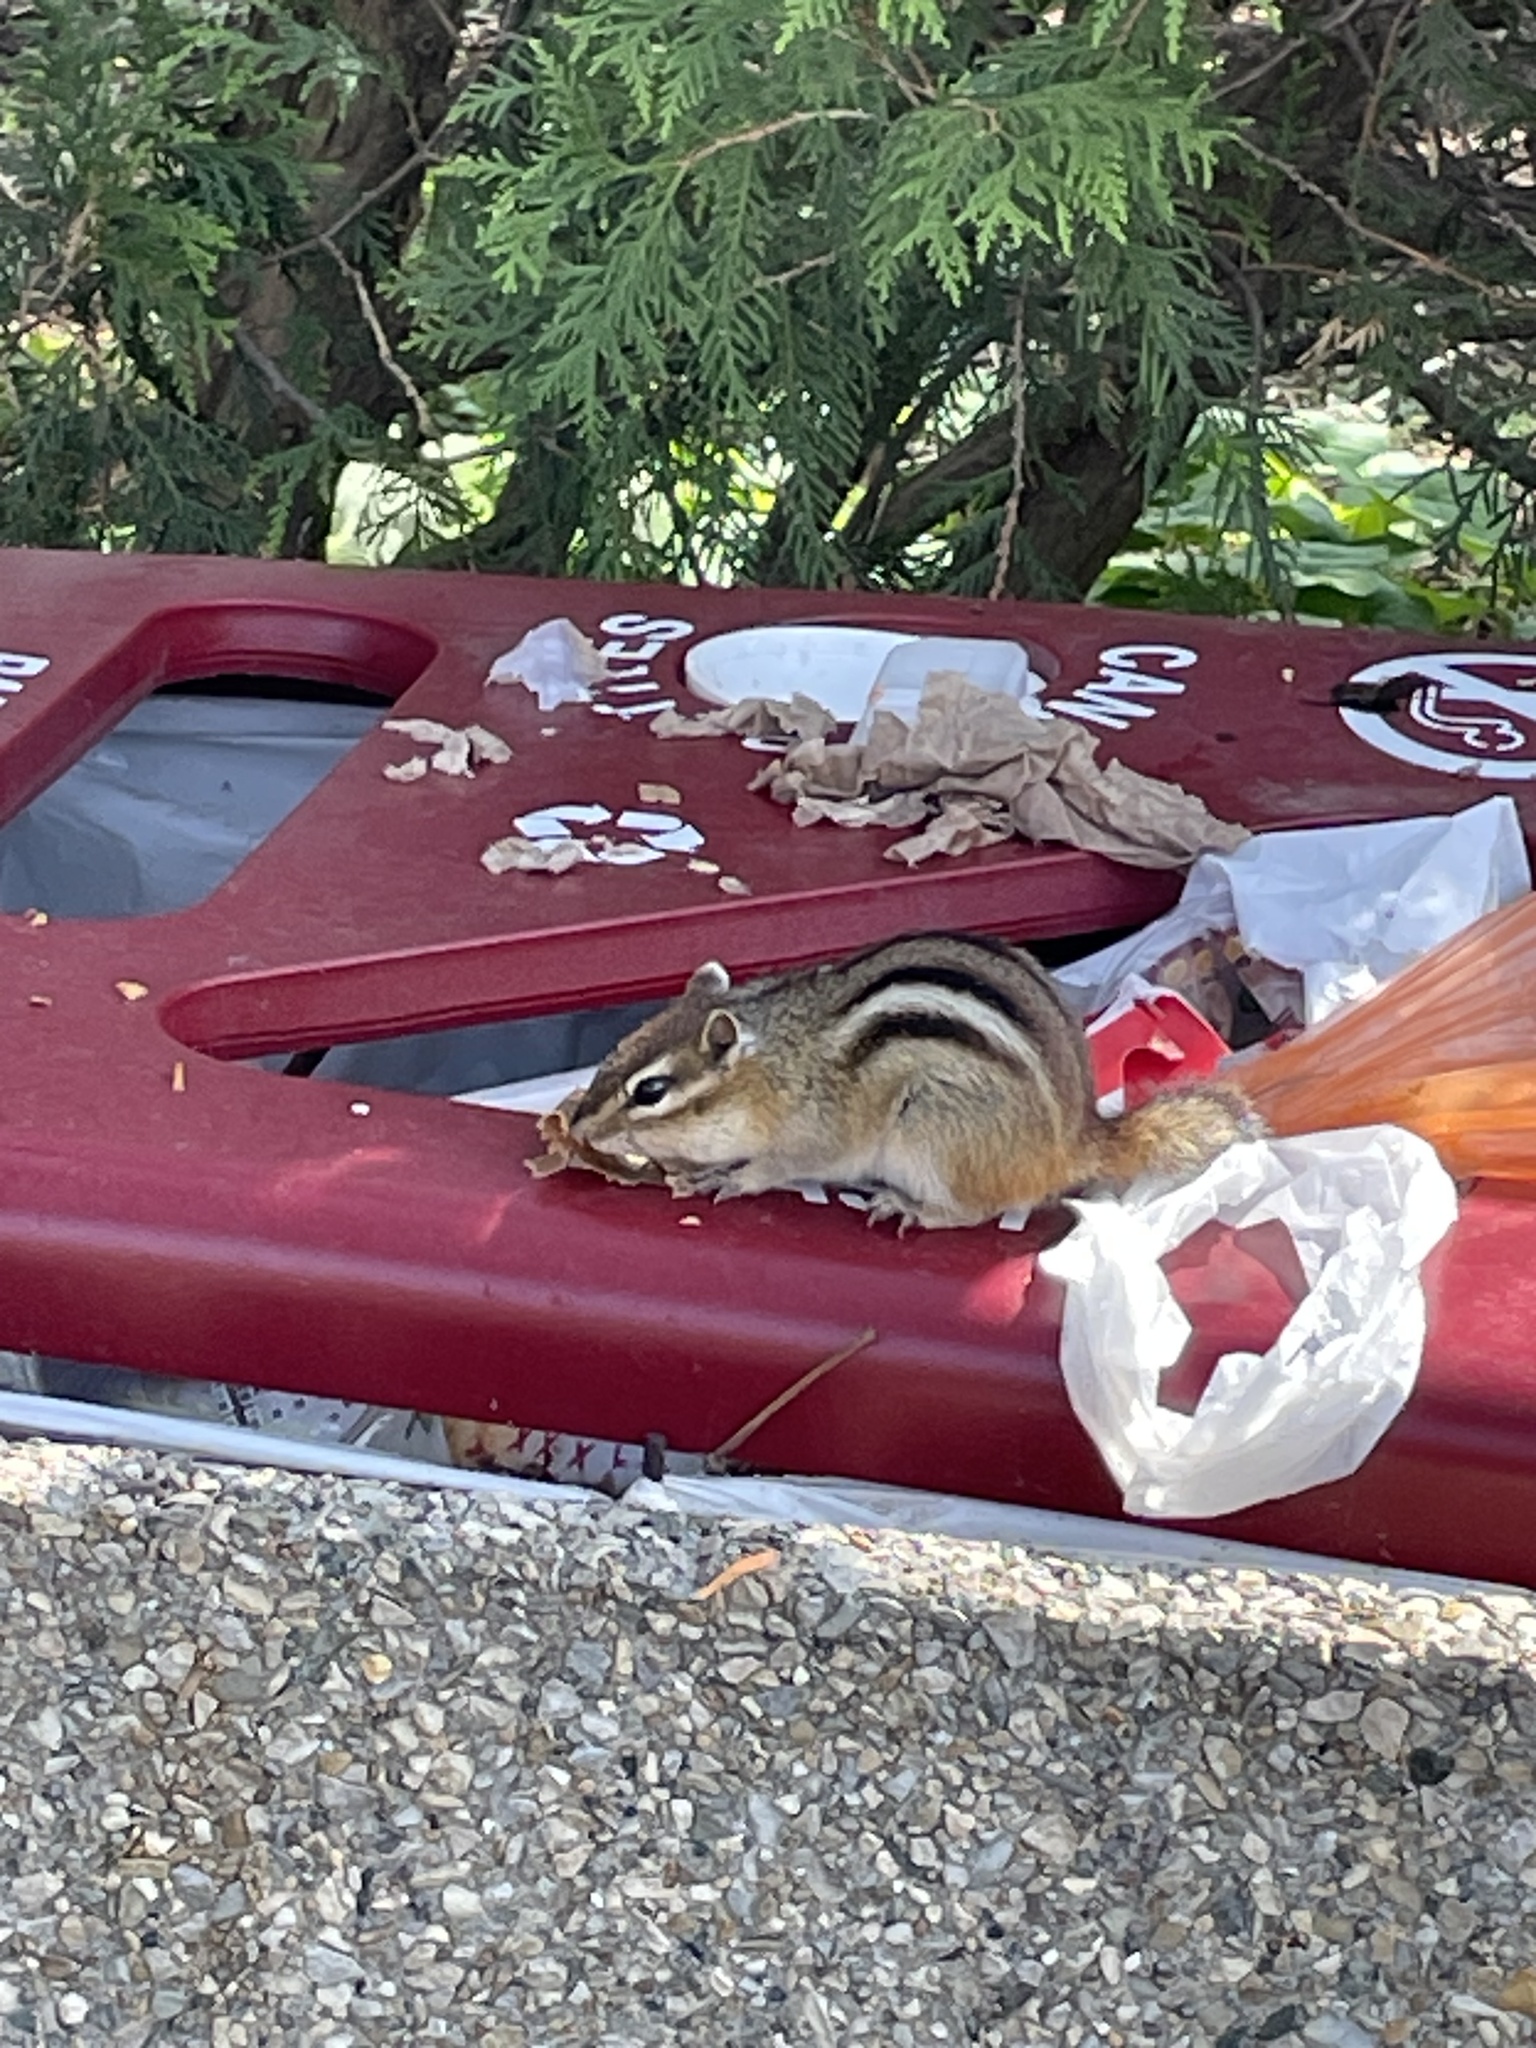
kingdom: Animalia
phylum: Chordata
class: Mammalia
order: Rodentia
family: Sciuridae
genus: Tamias
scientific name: Tamias striatus
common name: Eastern chipmunk
